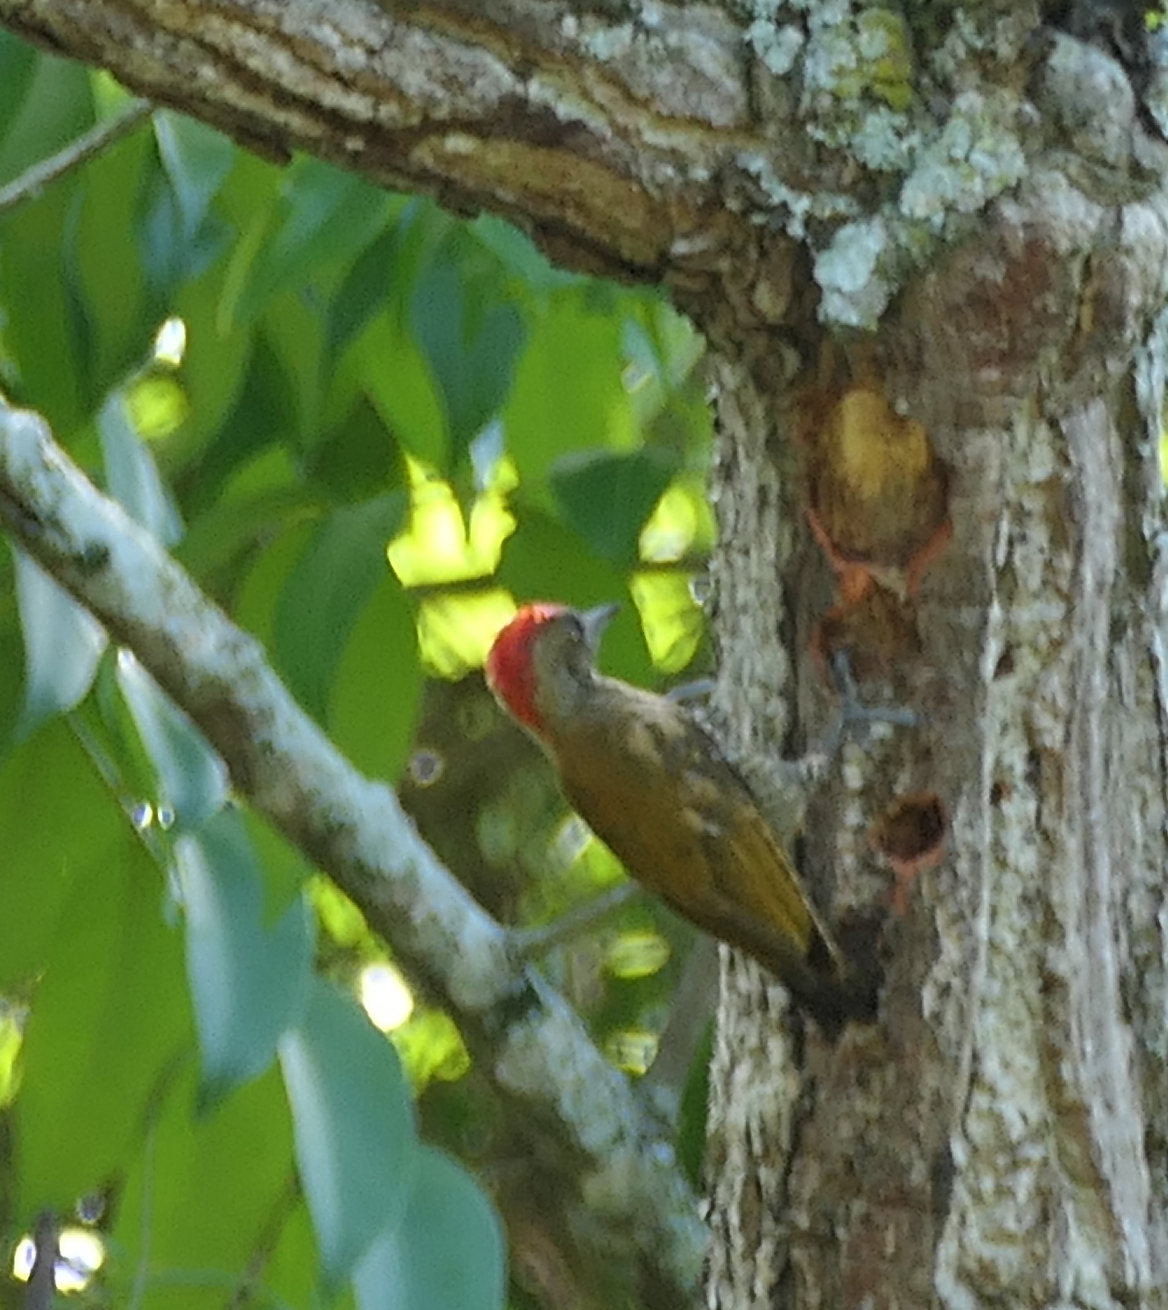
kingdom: Animalia
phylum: Chordata
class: Aves
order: Piciformes
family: Picidae
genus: Veniliornis
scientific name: Veniliornis passerinus
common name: Little woodpecker
